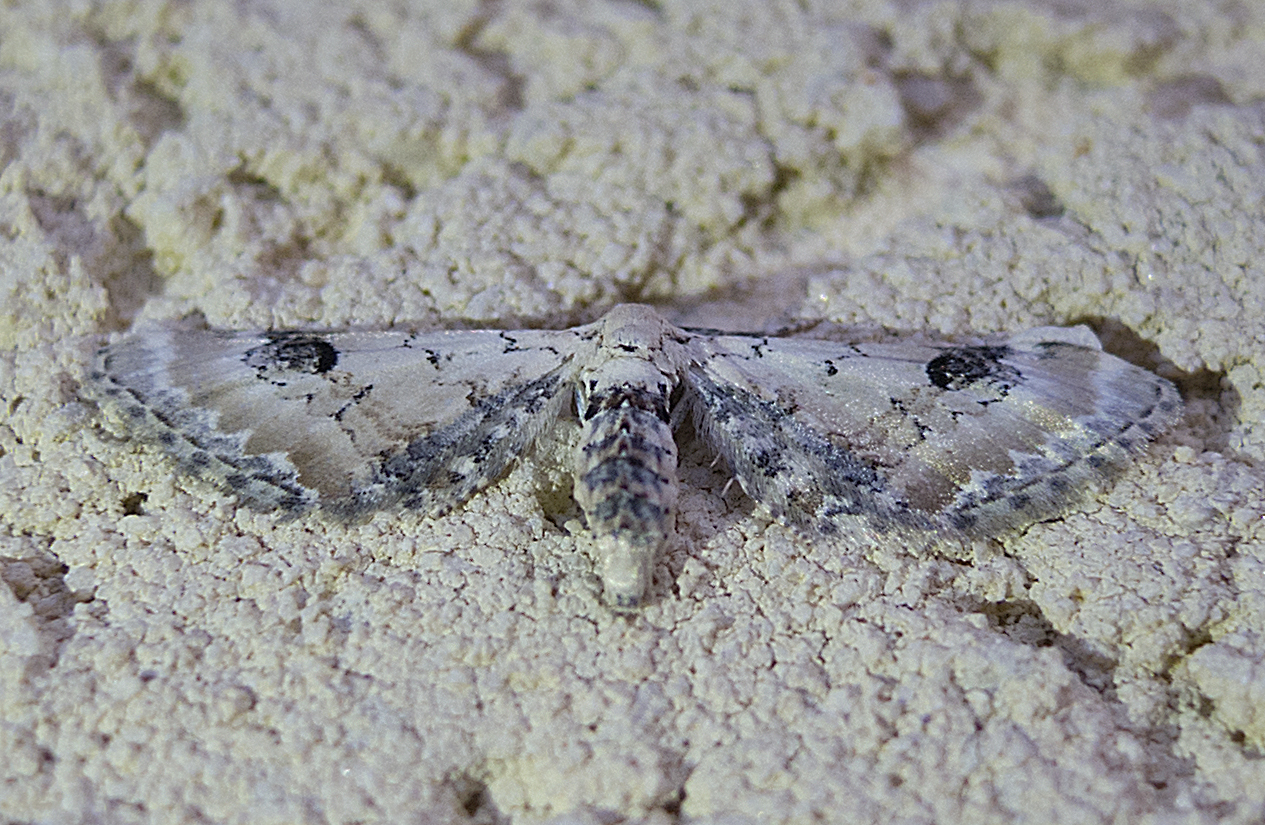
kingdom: Animalia
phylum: Arthropoda
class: Insecta
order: Lepidoptera
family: Geometridae
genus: Eupithecia
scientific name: Eupithecia centaureata
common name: Lime-speck pug
